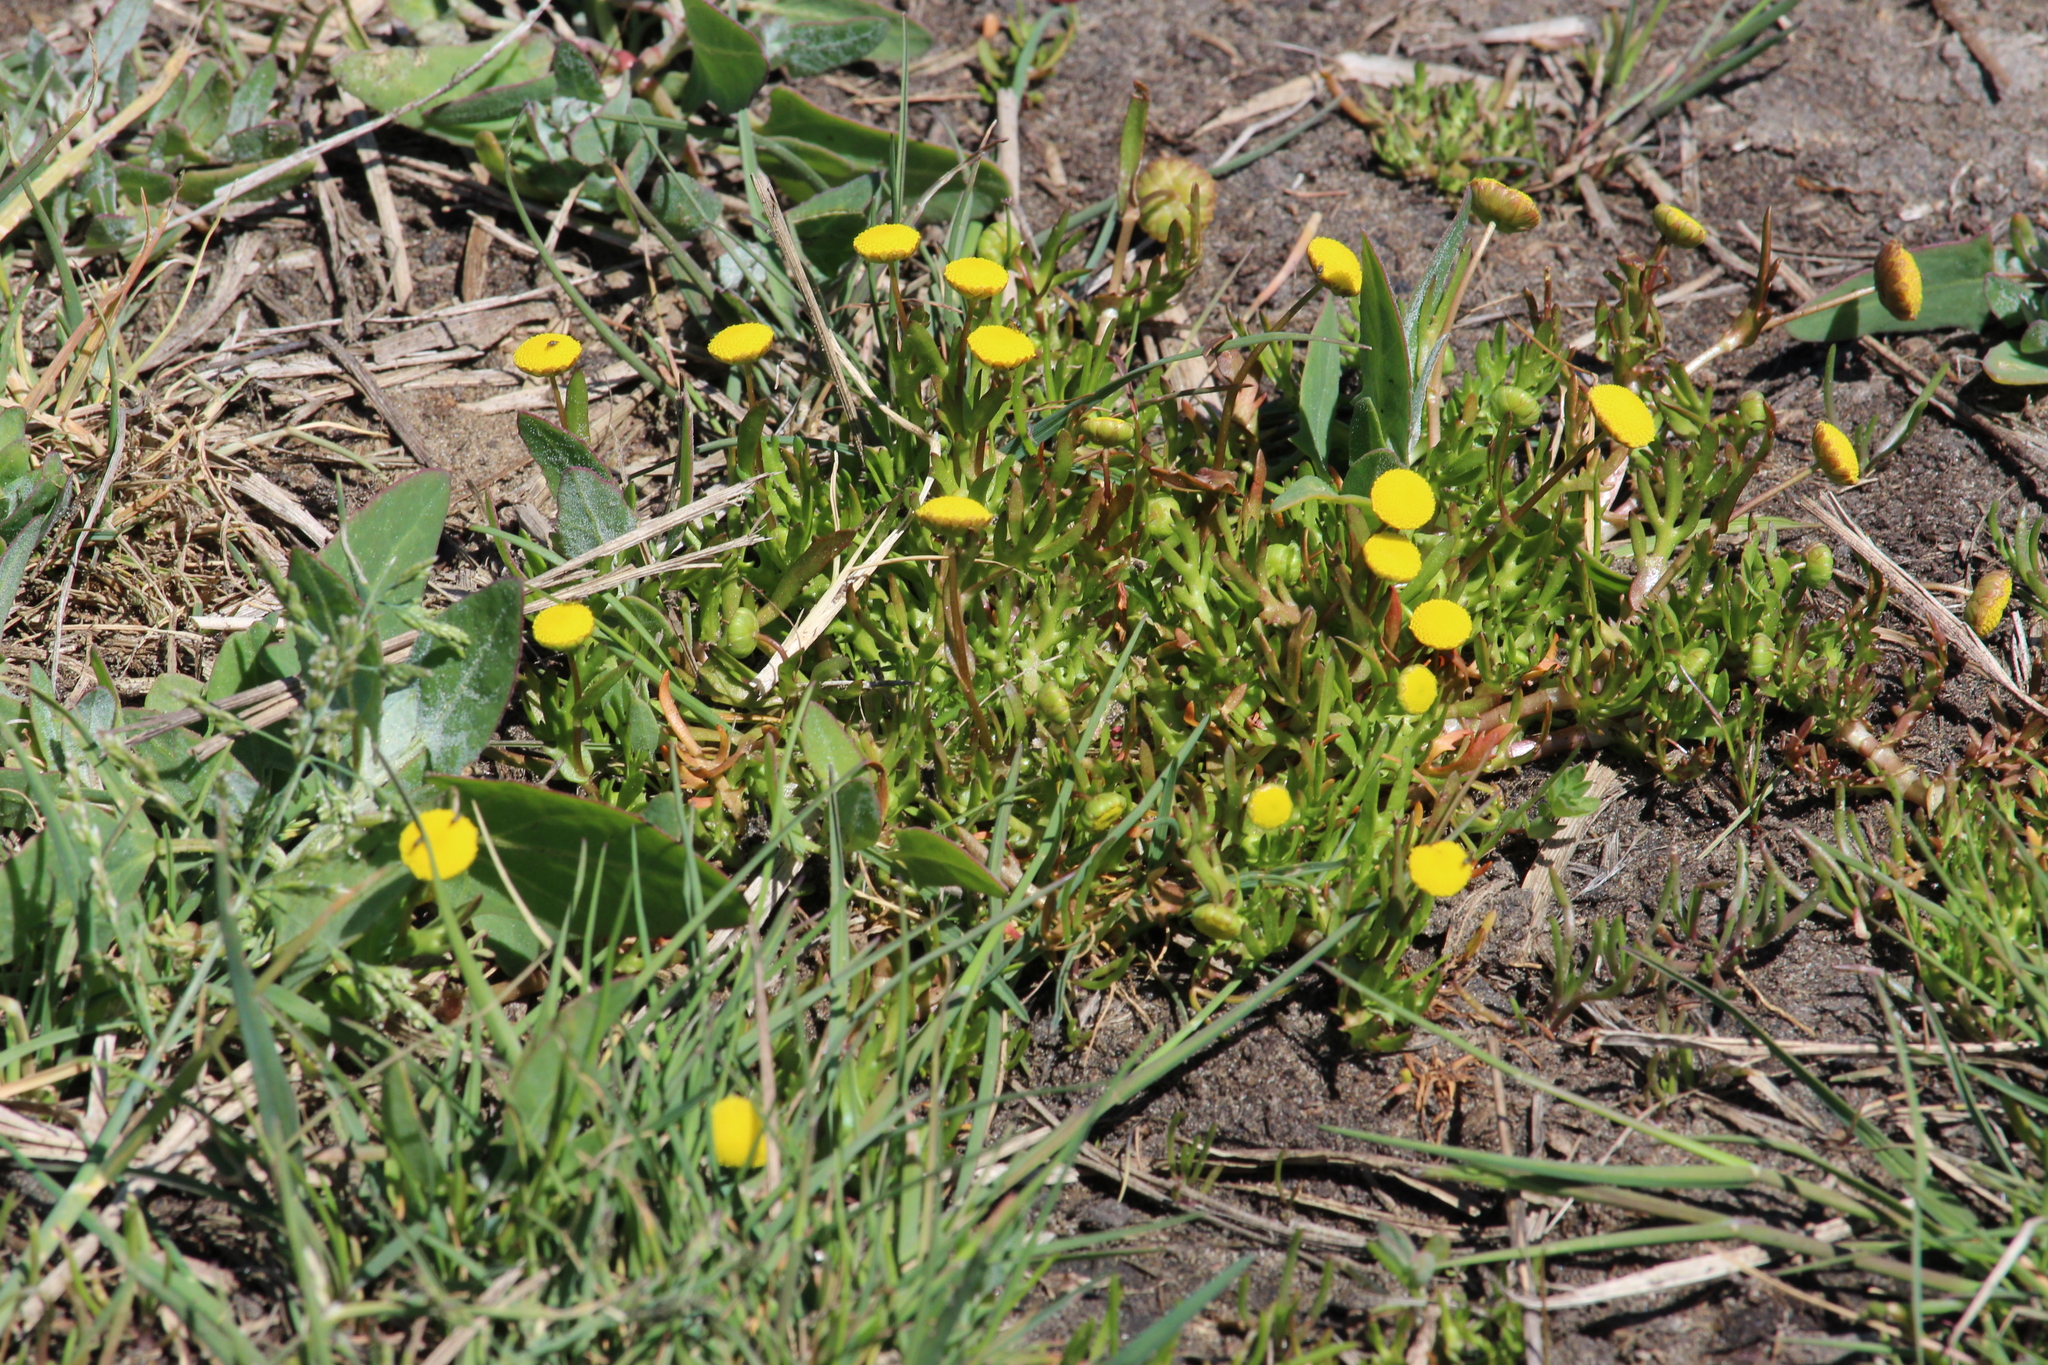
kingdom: Plantae
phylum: Tracheophyta
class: Magnoliopsida
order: Asterales
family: Asteraceae
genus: Cotula
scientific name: Cotula coronopifolia
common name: Buttonweed
